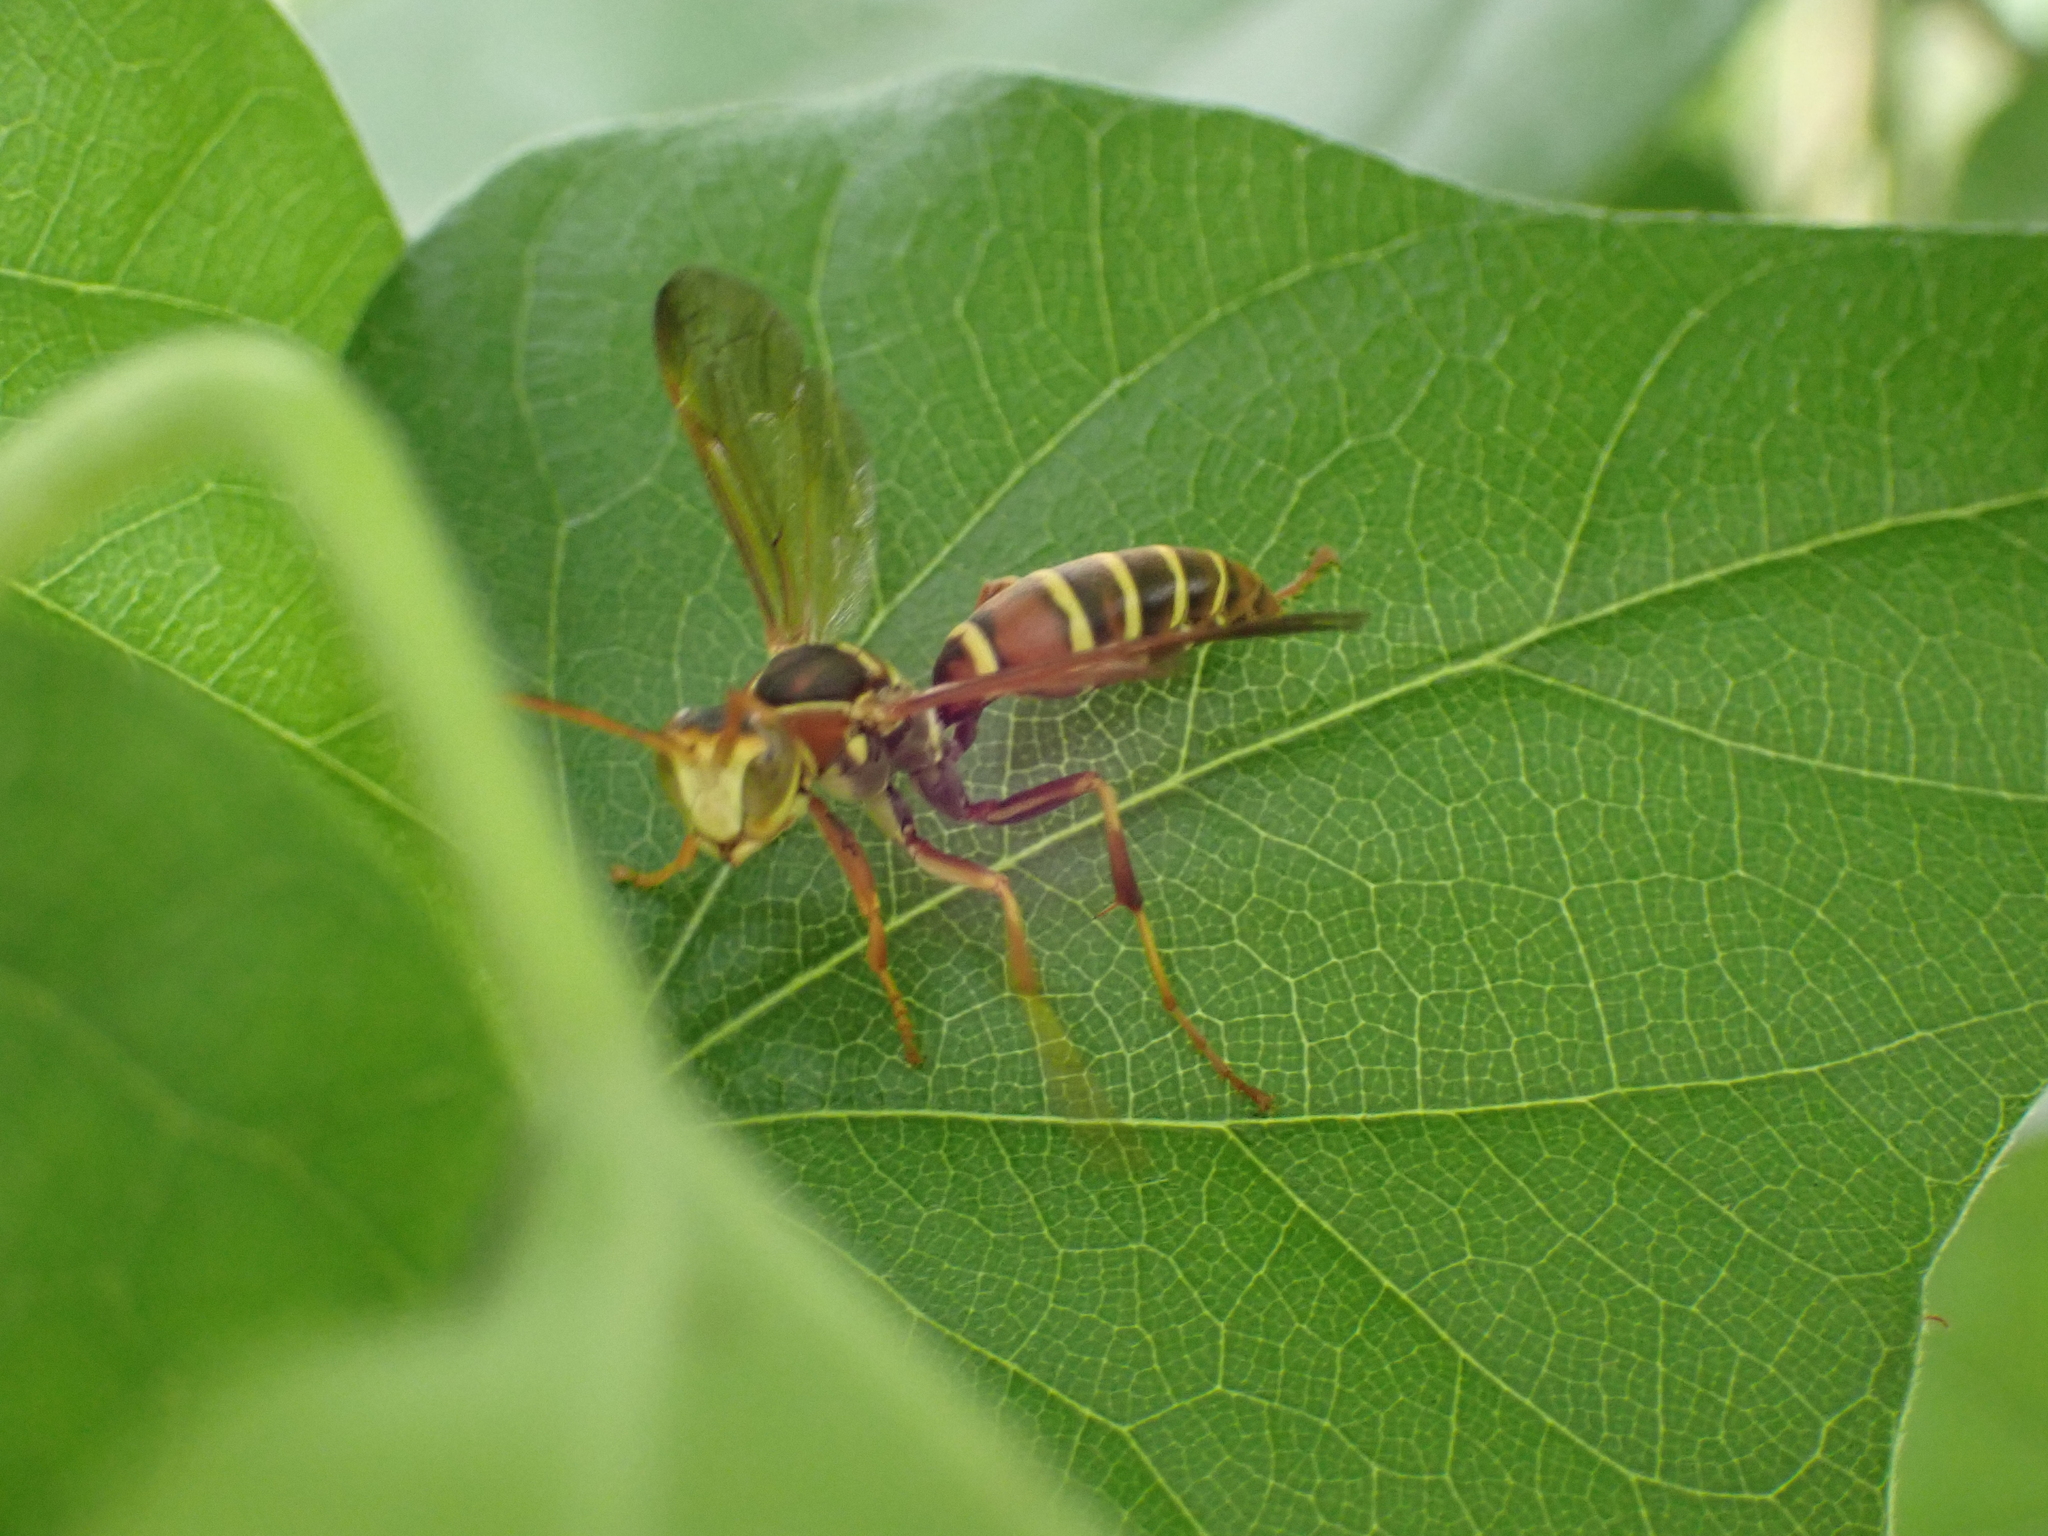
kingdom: Animalia
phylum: Arthropoda
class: Insecta
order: Hymenoptera
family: Eumenidae
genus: Polistes
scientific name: Polistes dorsalis
